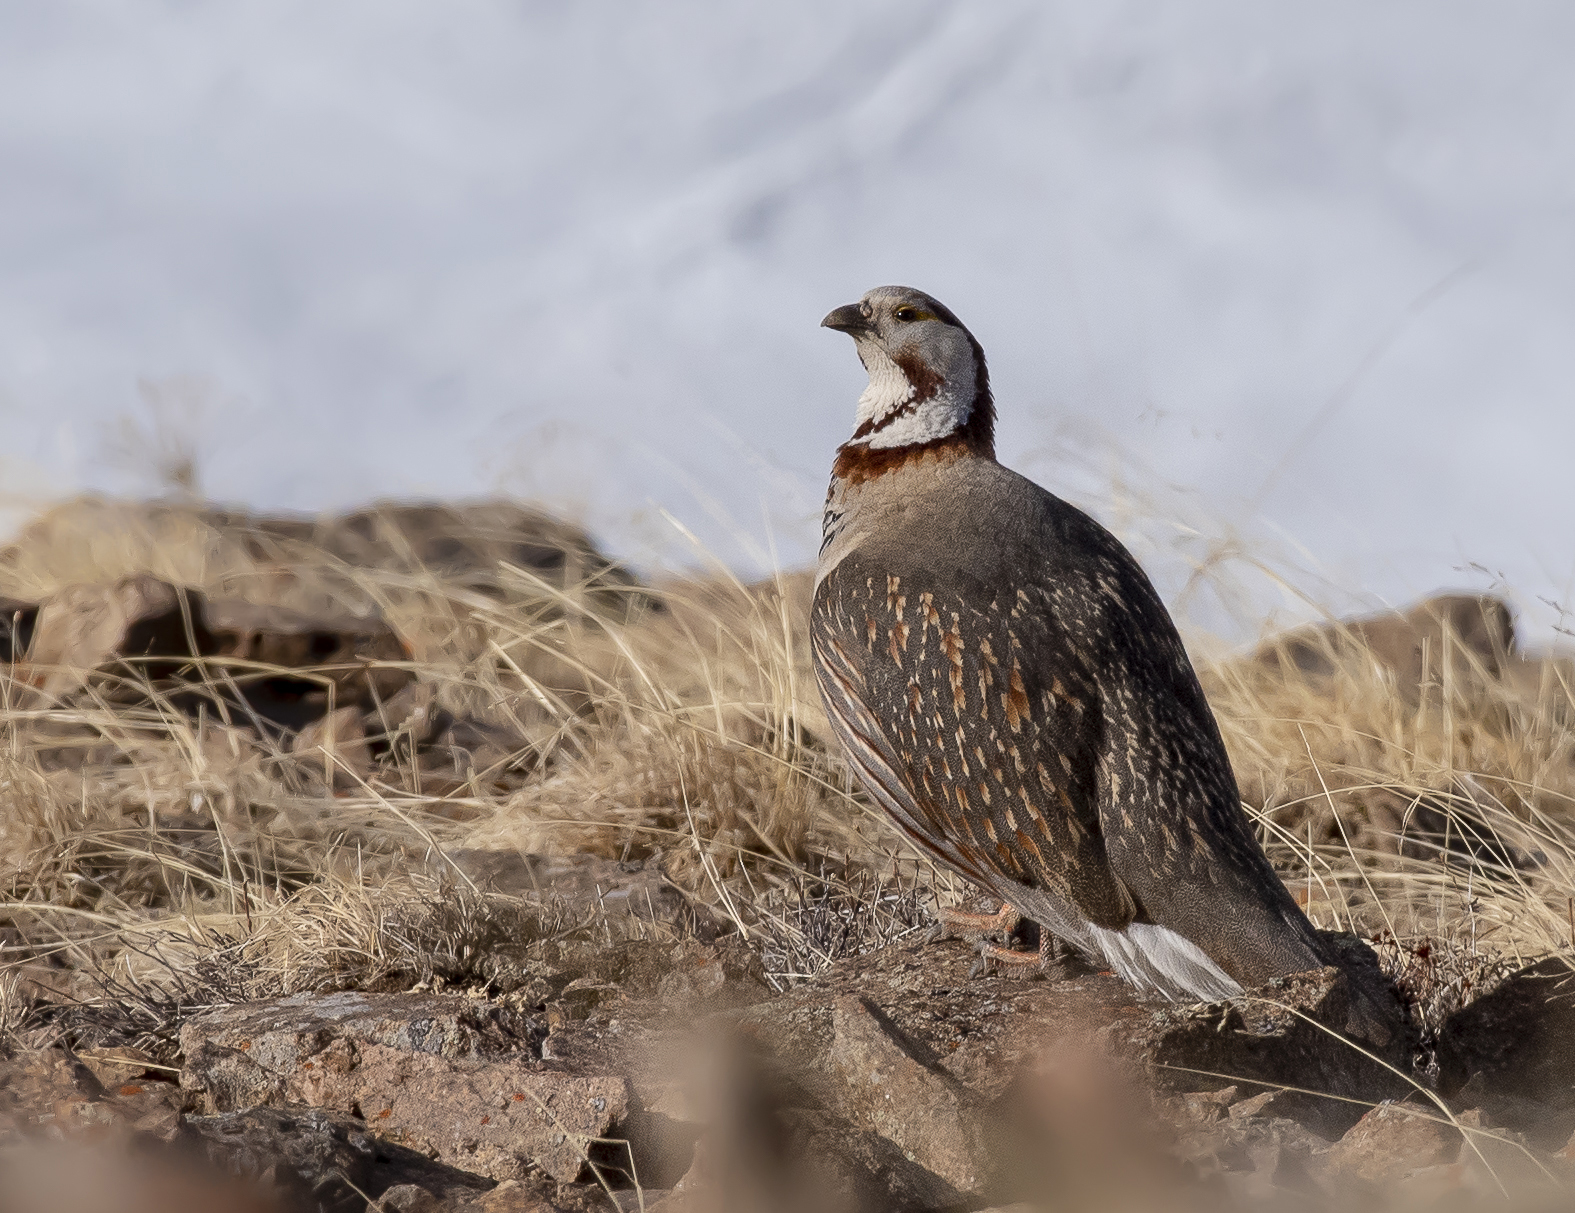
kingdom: Animalia
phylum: Chordata
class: Aves
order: Galliformes
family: Phasianidae
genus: Tetraogallus
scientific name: Tetraogallus himalayensis
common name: Himalayan snowcock
